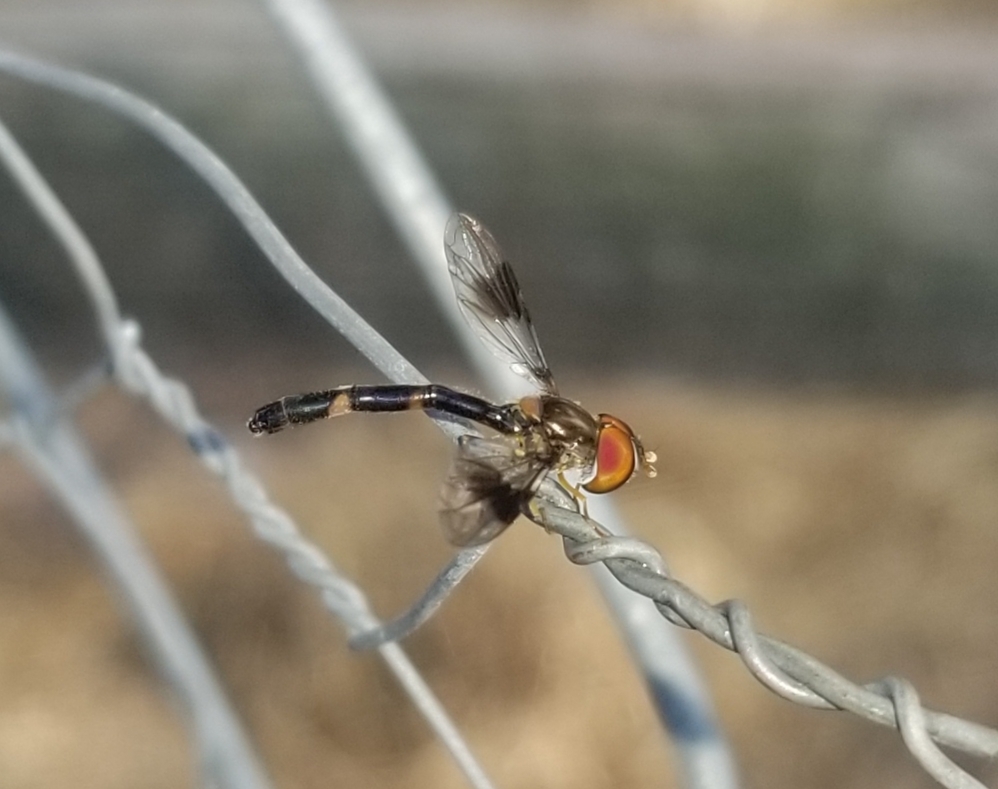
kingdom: Animalia
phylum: Arthropoda
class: Insecta
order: Diptera
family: Syrphidae
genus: Hypocritanus
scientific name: Hypocritanus fascipennis
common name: Eastern band-winged hover fly
